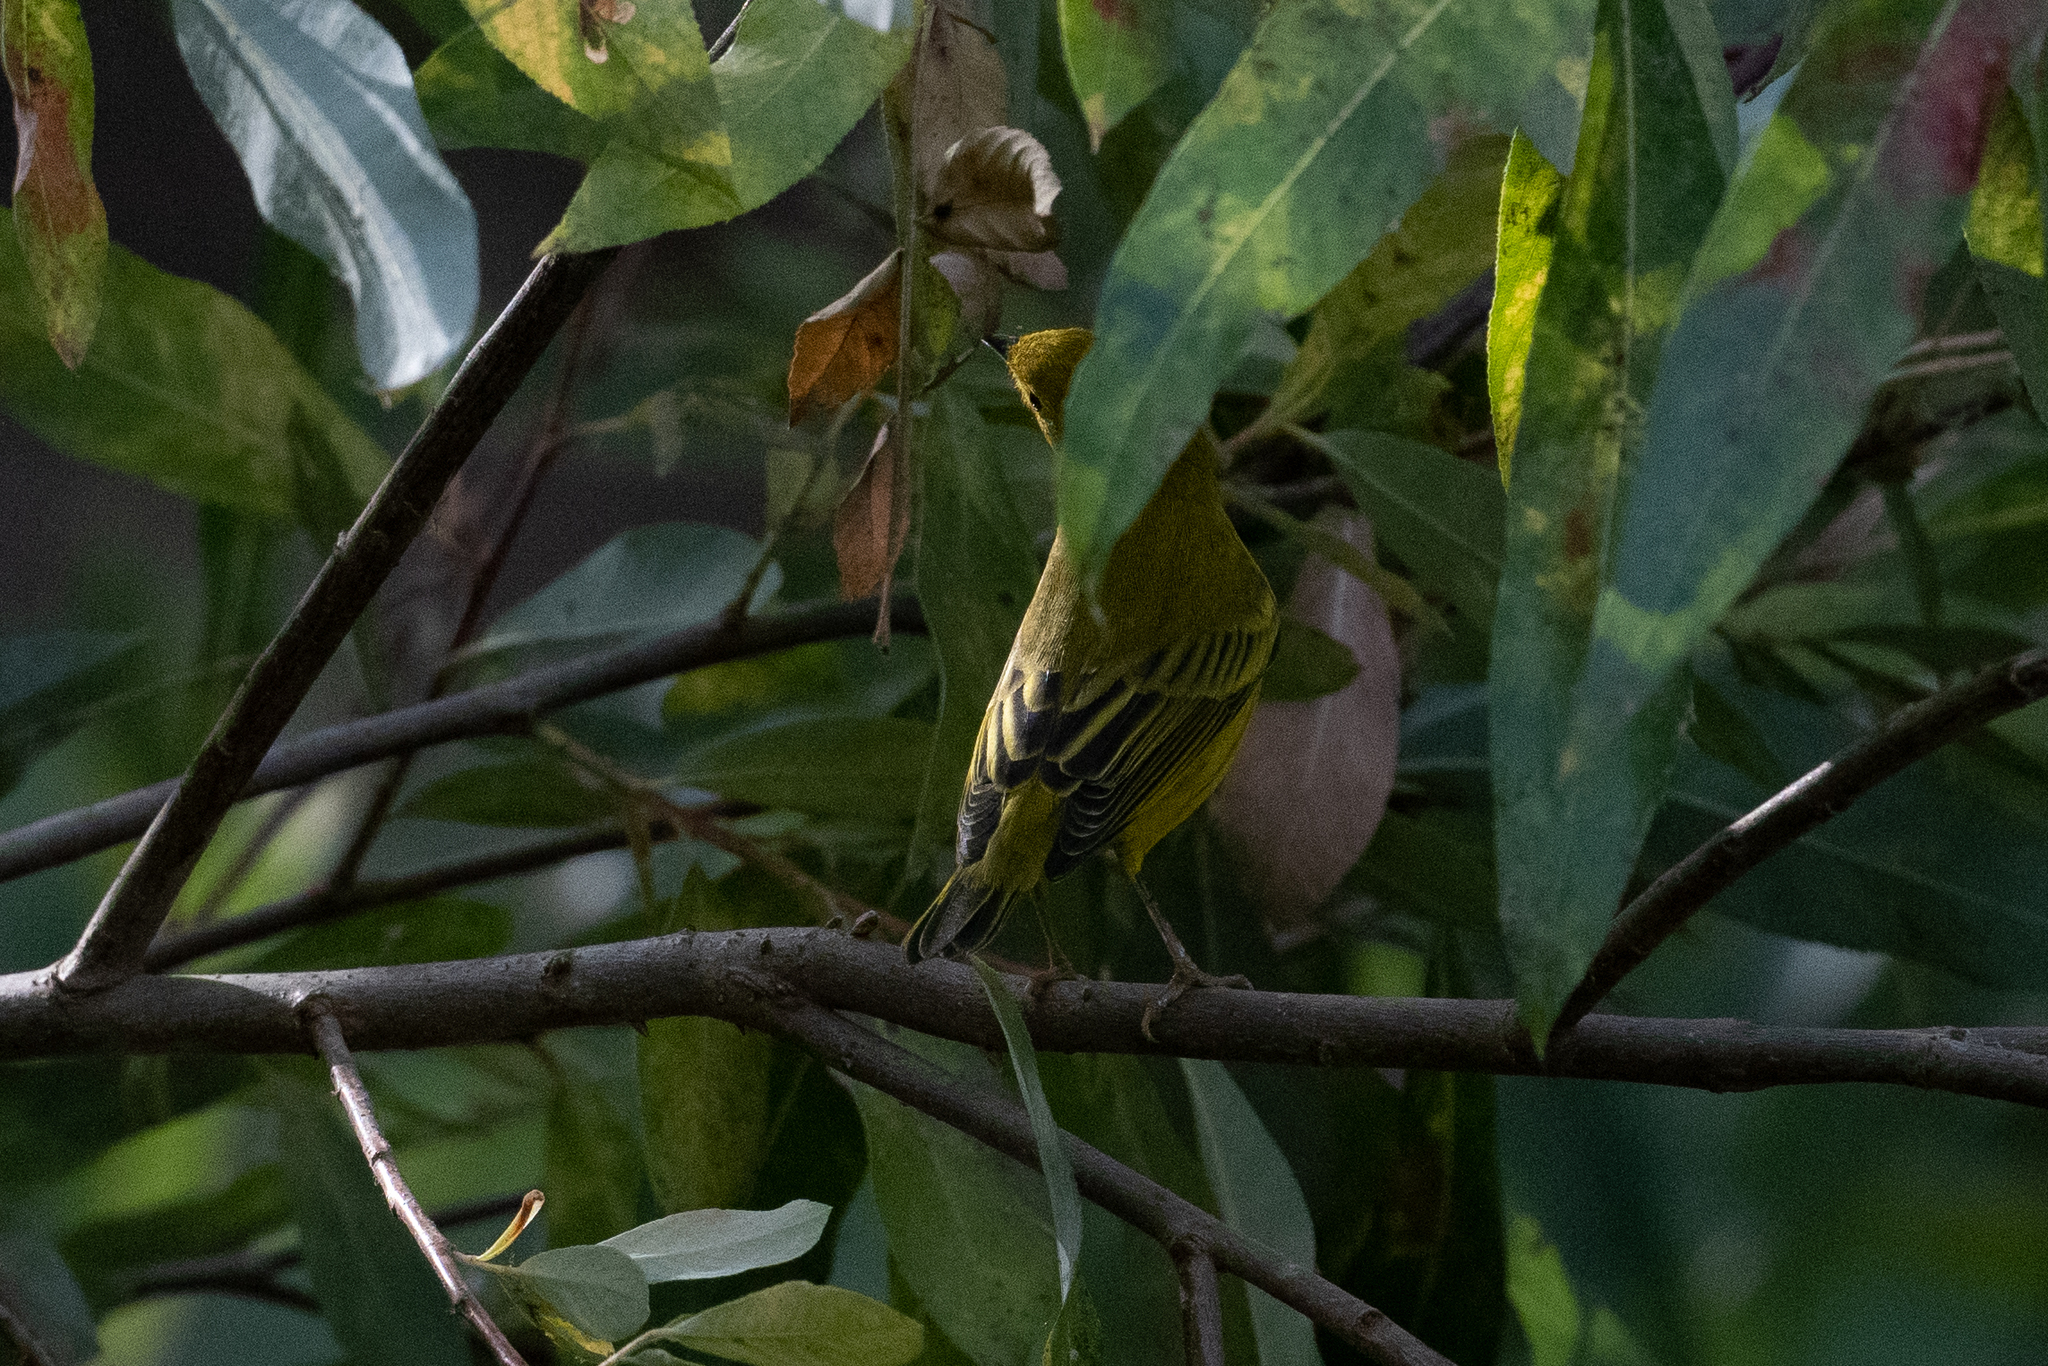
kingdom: Animalia
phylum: Chordata
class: Aves
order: Passeriformes
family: Parulidae
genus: Setophaga
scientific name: Setophaga petechia
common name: Yellow warbler
